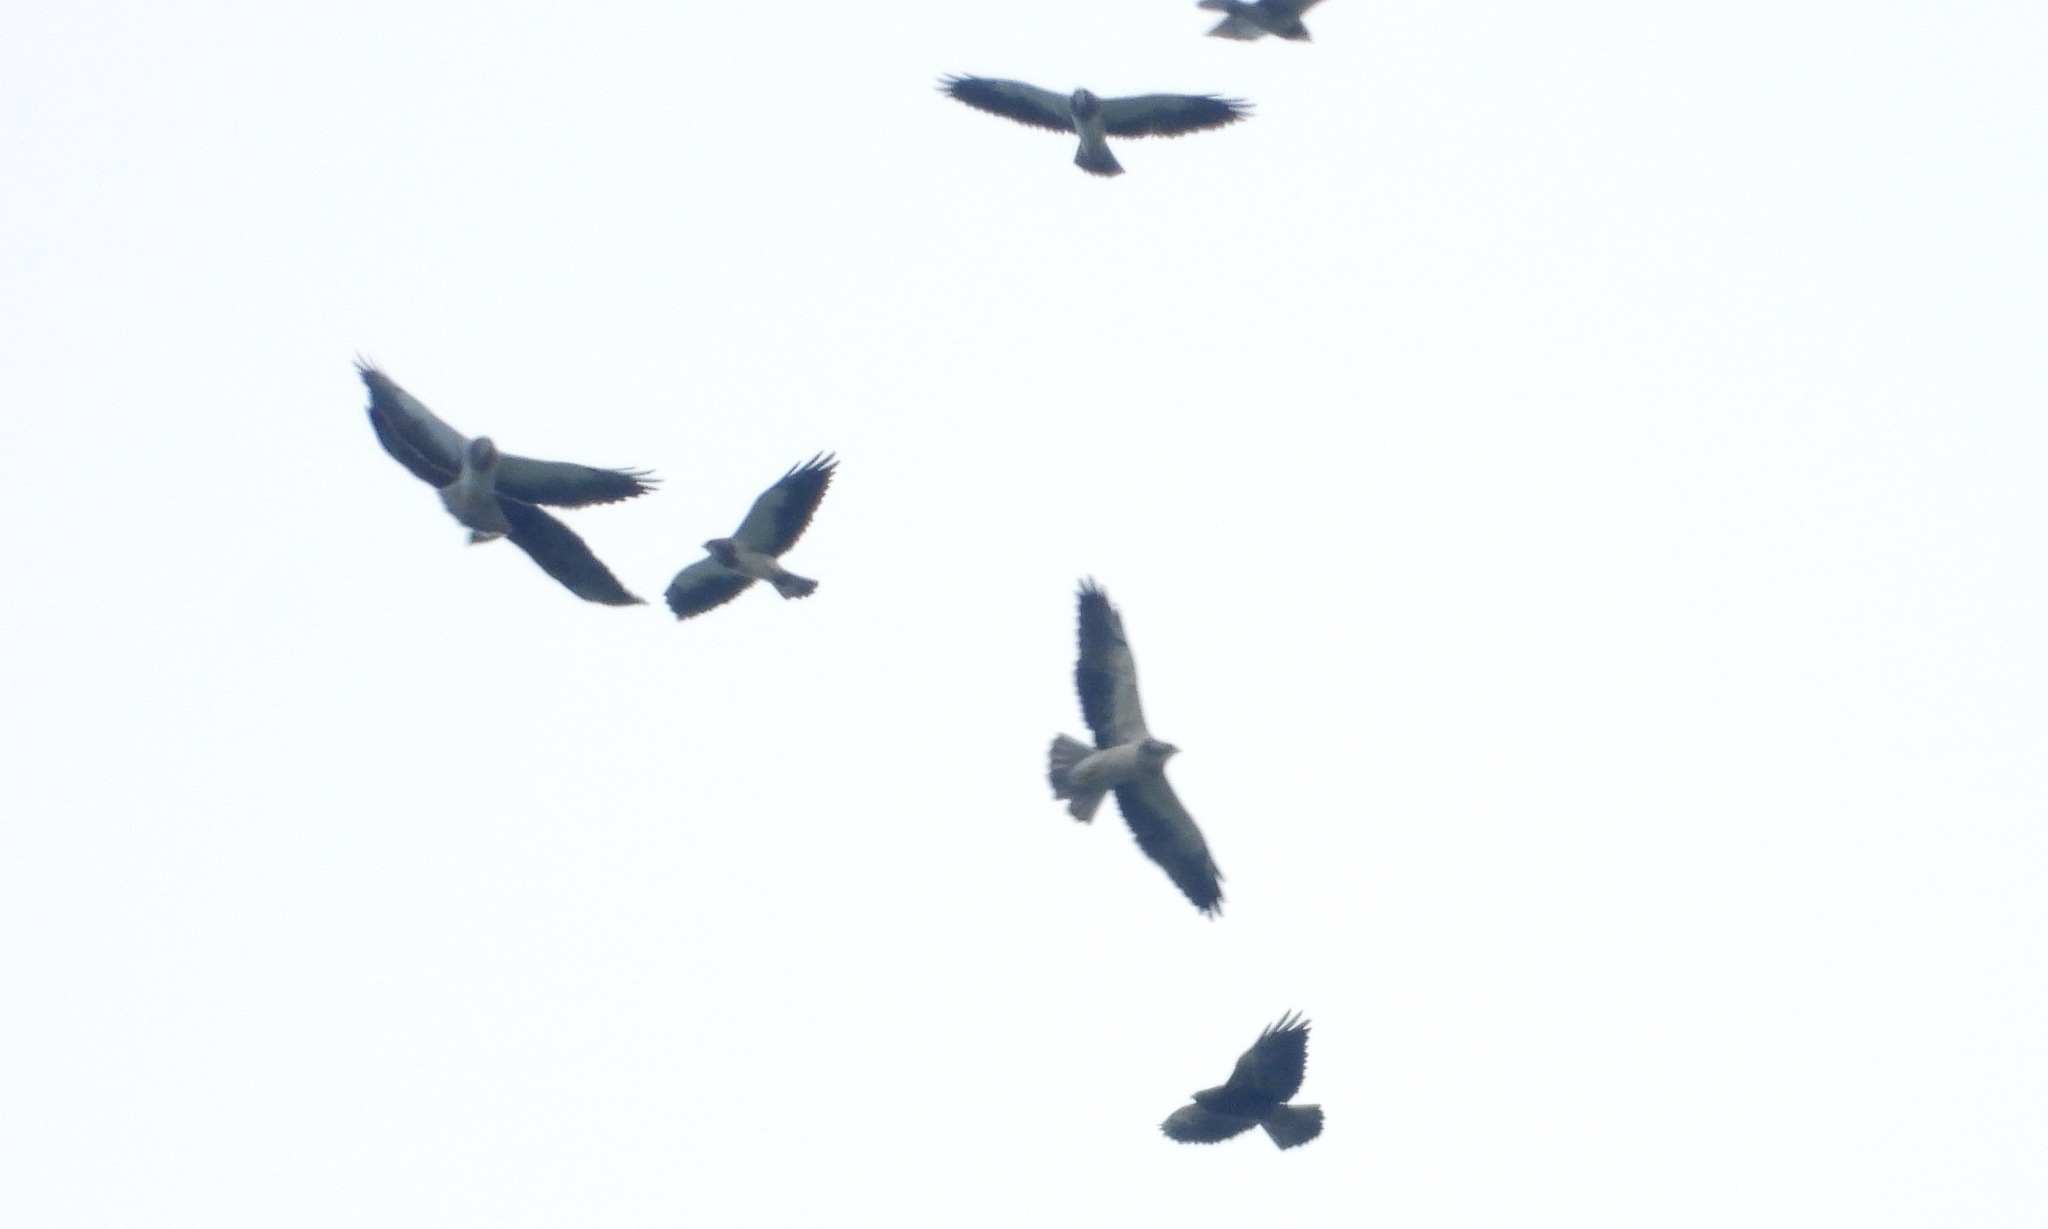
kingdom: Animalia
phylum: Chordata
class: Aves
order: Accipitriformes
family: Accipitridae
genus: Buteo
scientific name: Buteo swainsoni
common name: Swainson's hawk
